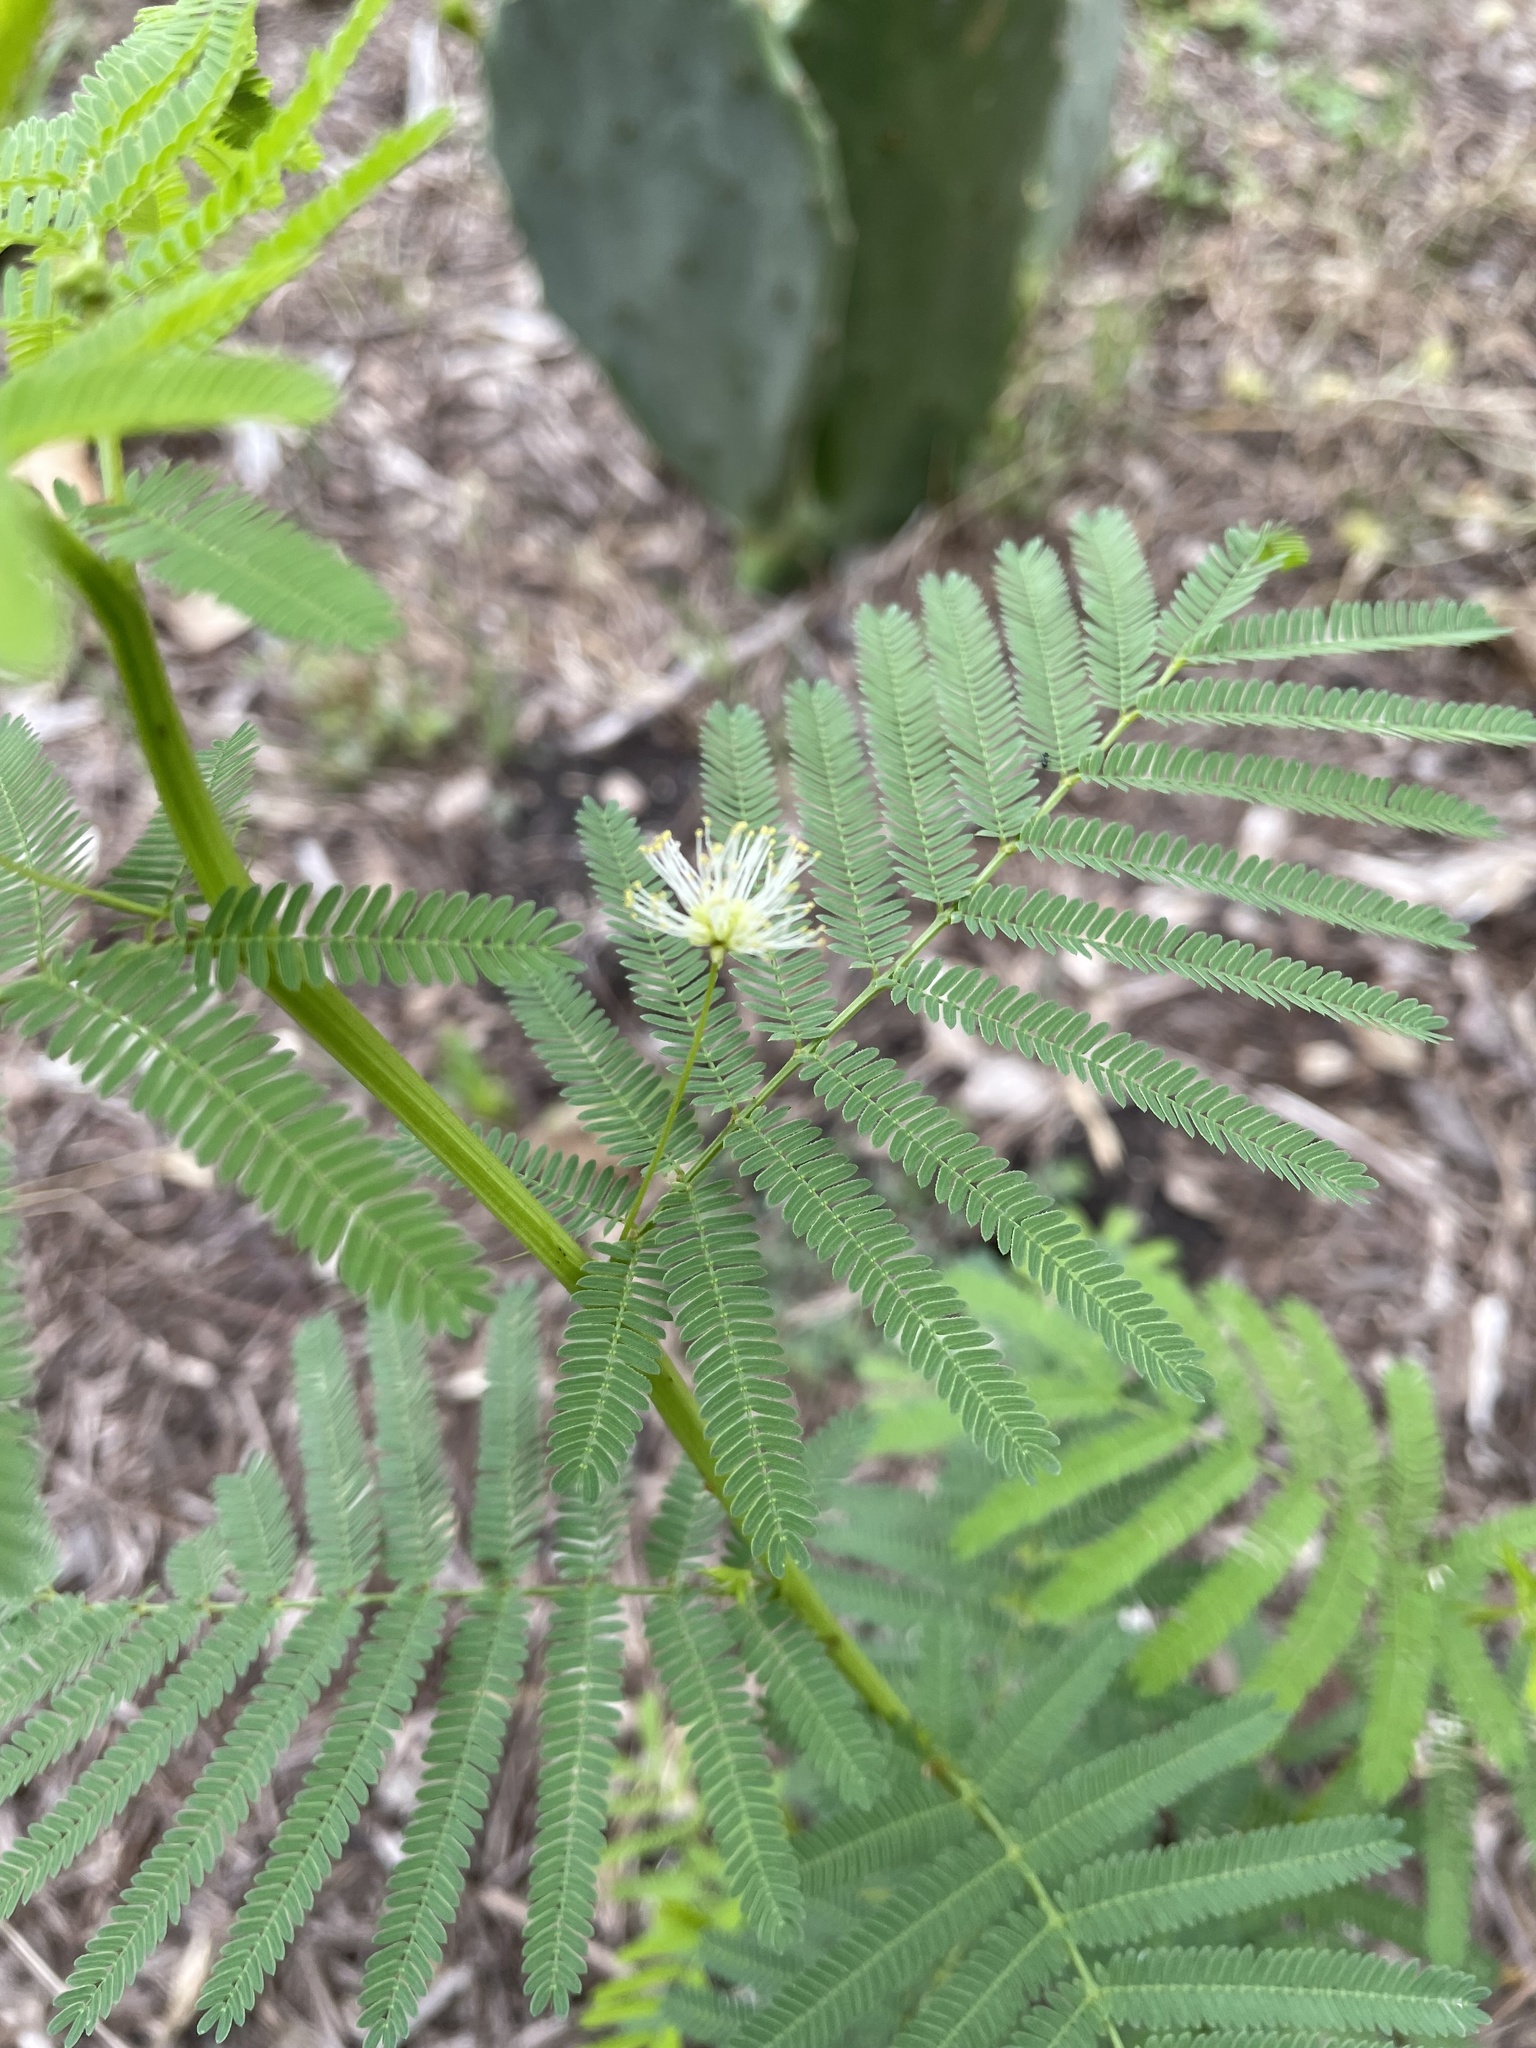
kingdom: Plantae
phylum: Tracheophyta
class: Magnoliopsida
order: Fabales
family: Fabaceae
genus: Desmanthus
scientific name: Desmanthus illinoensis
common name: Illinois bundle-flower
